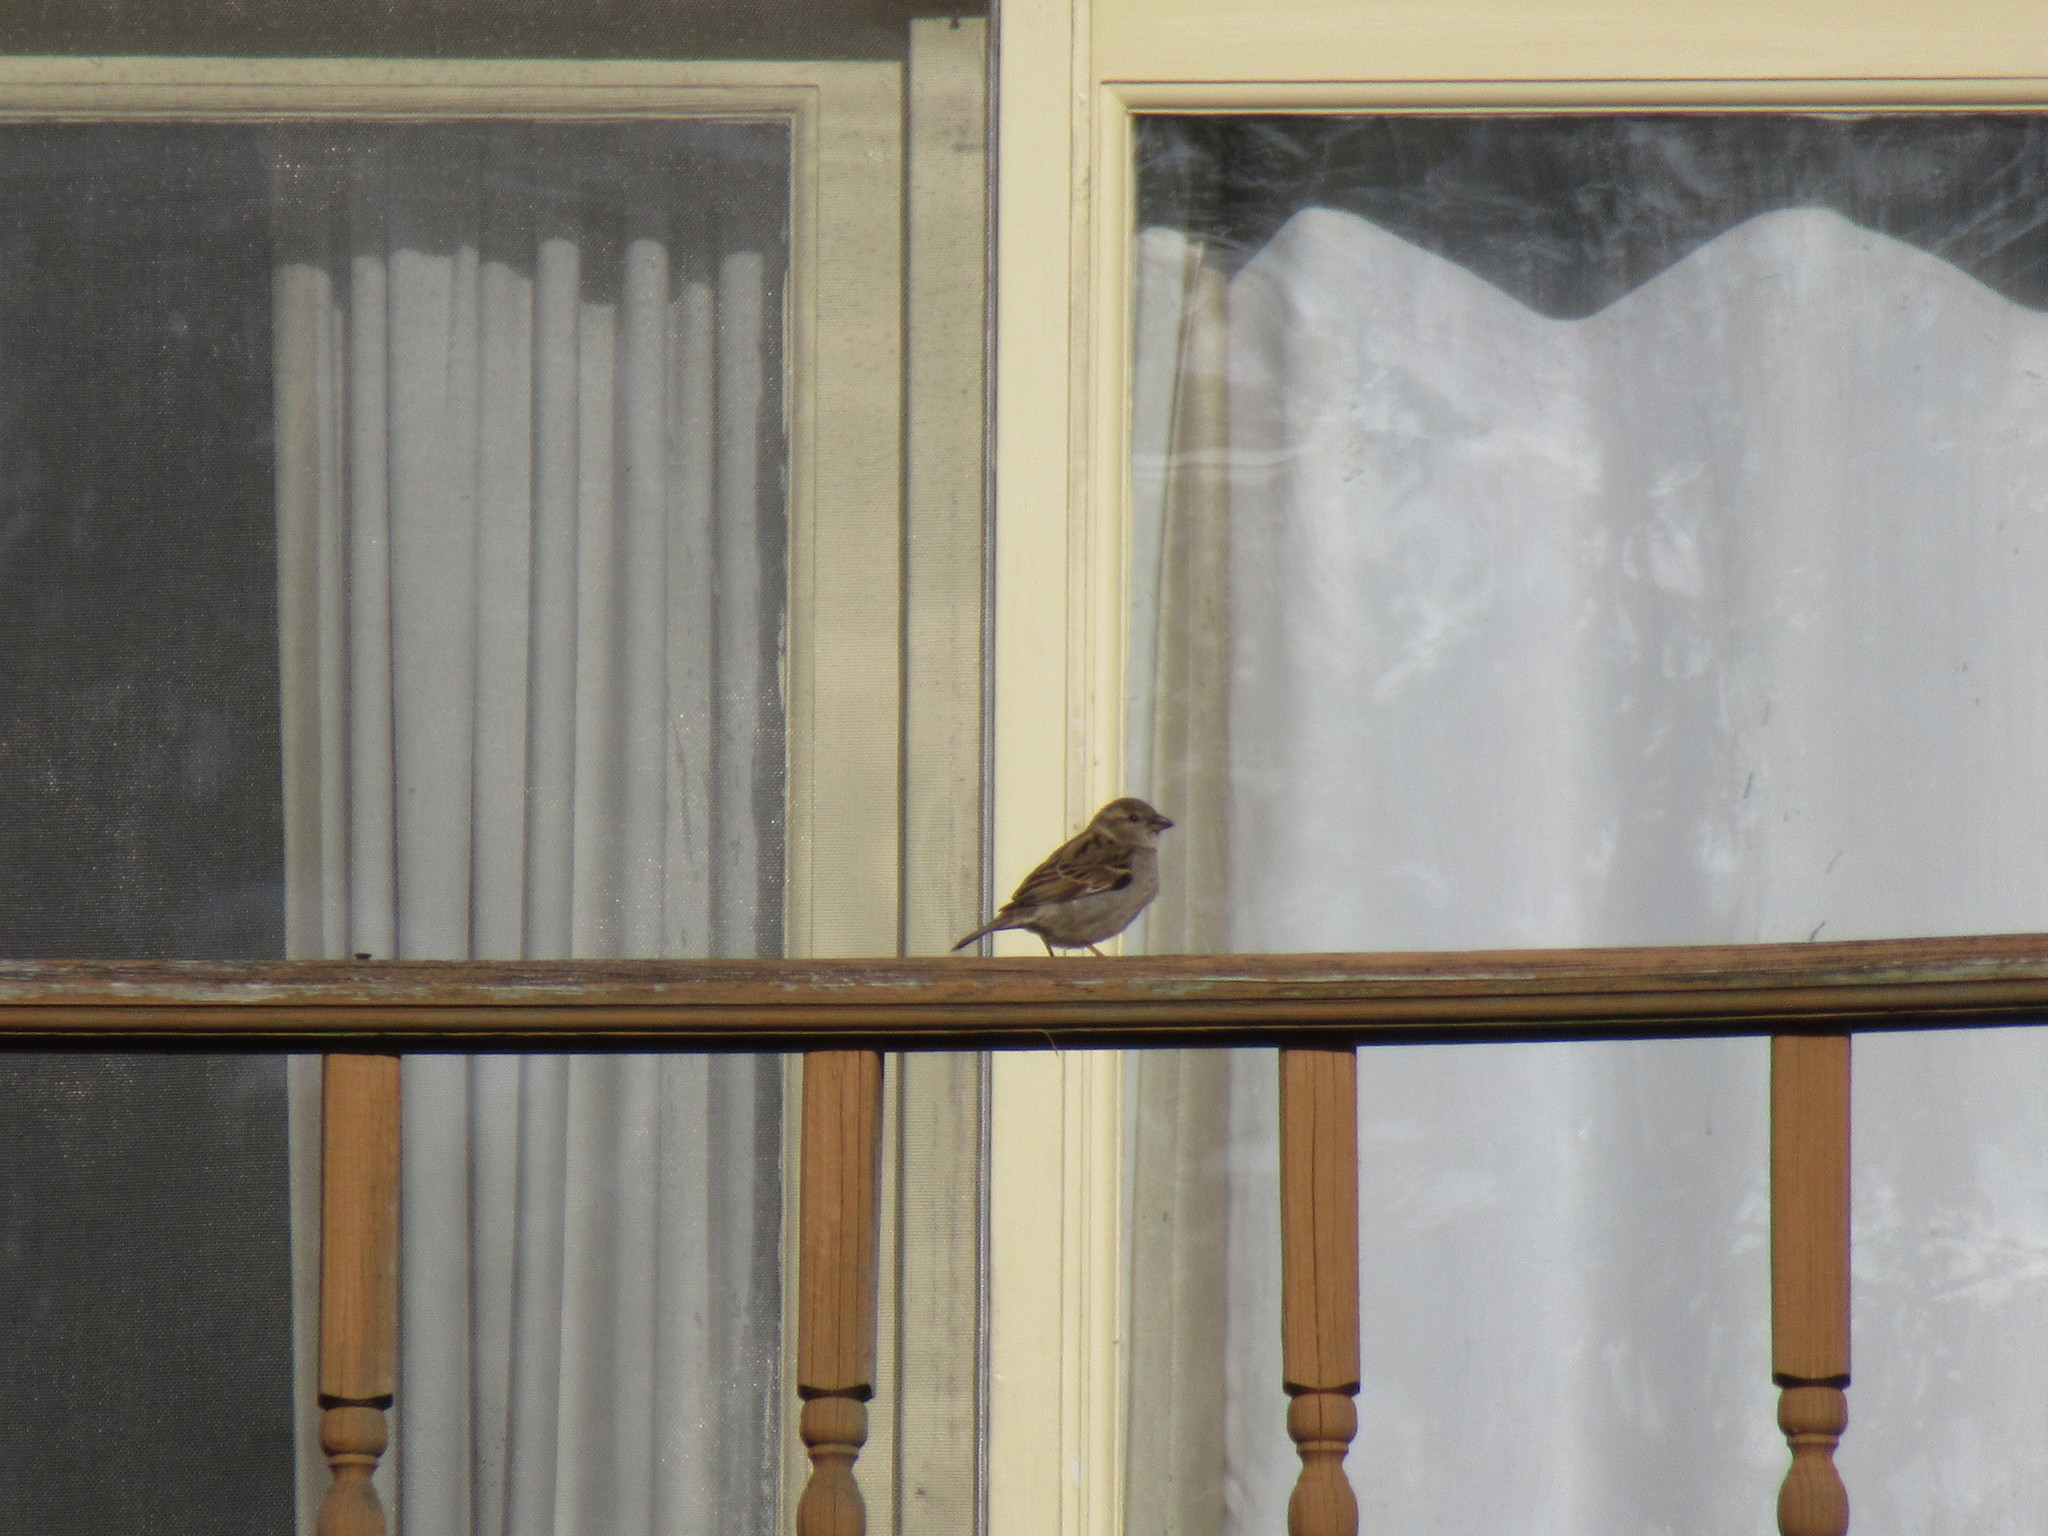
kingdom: Animalia
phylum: Chordata
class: Aves
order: Passeriformes
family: Passeridae
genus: Passer
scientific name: Passer domesticus
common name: House sparrow
